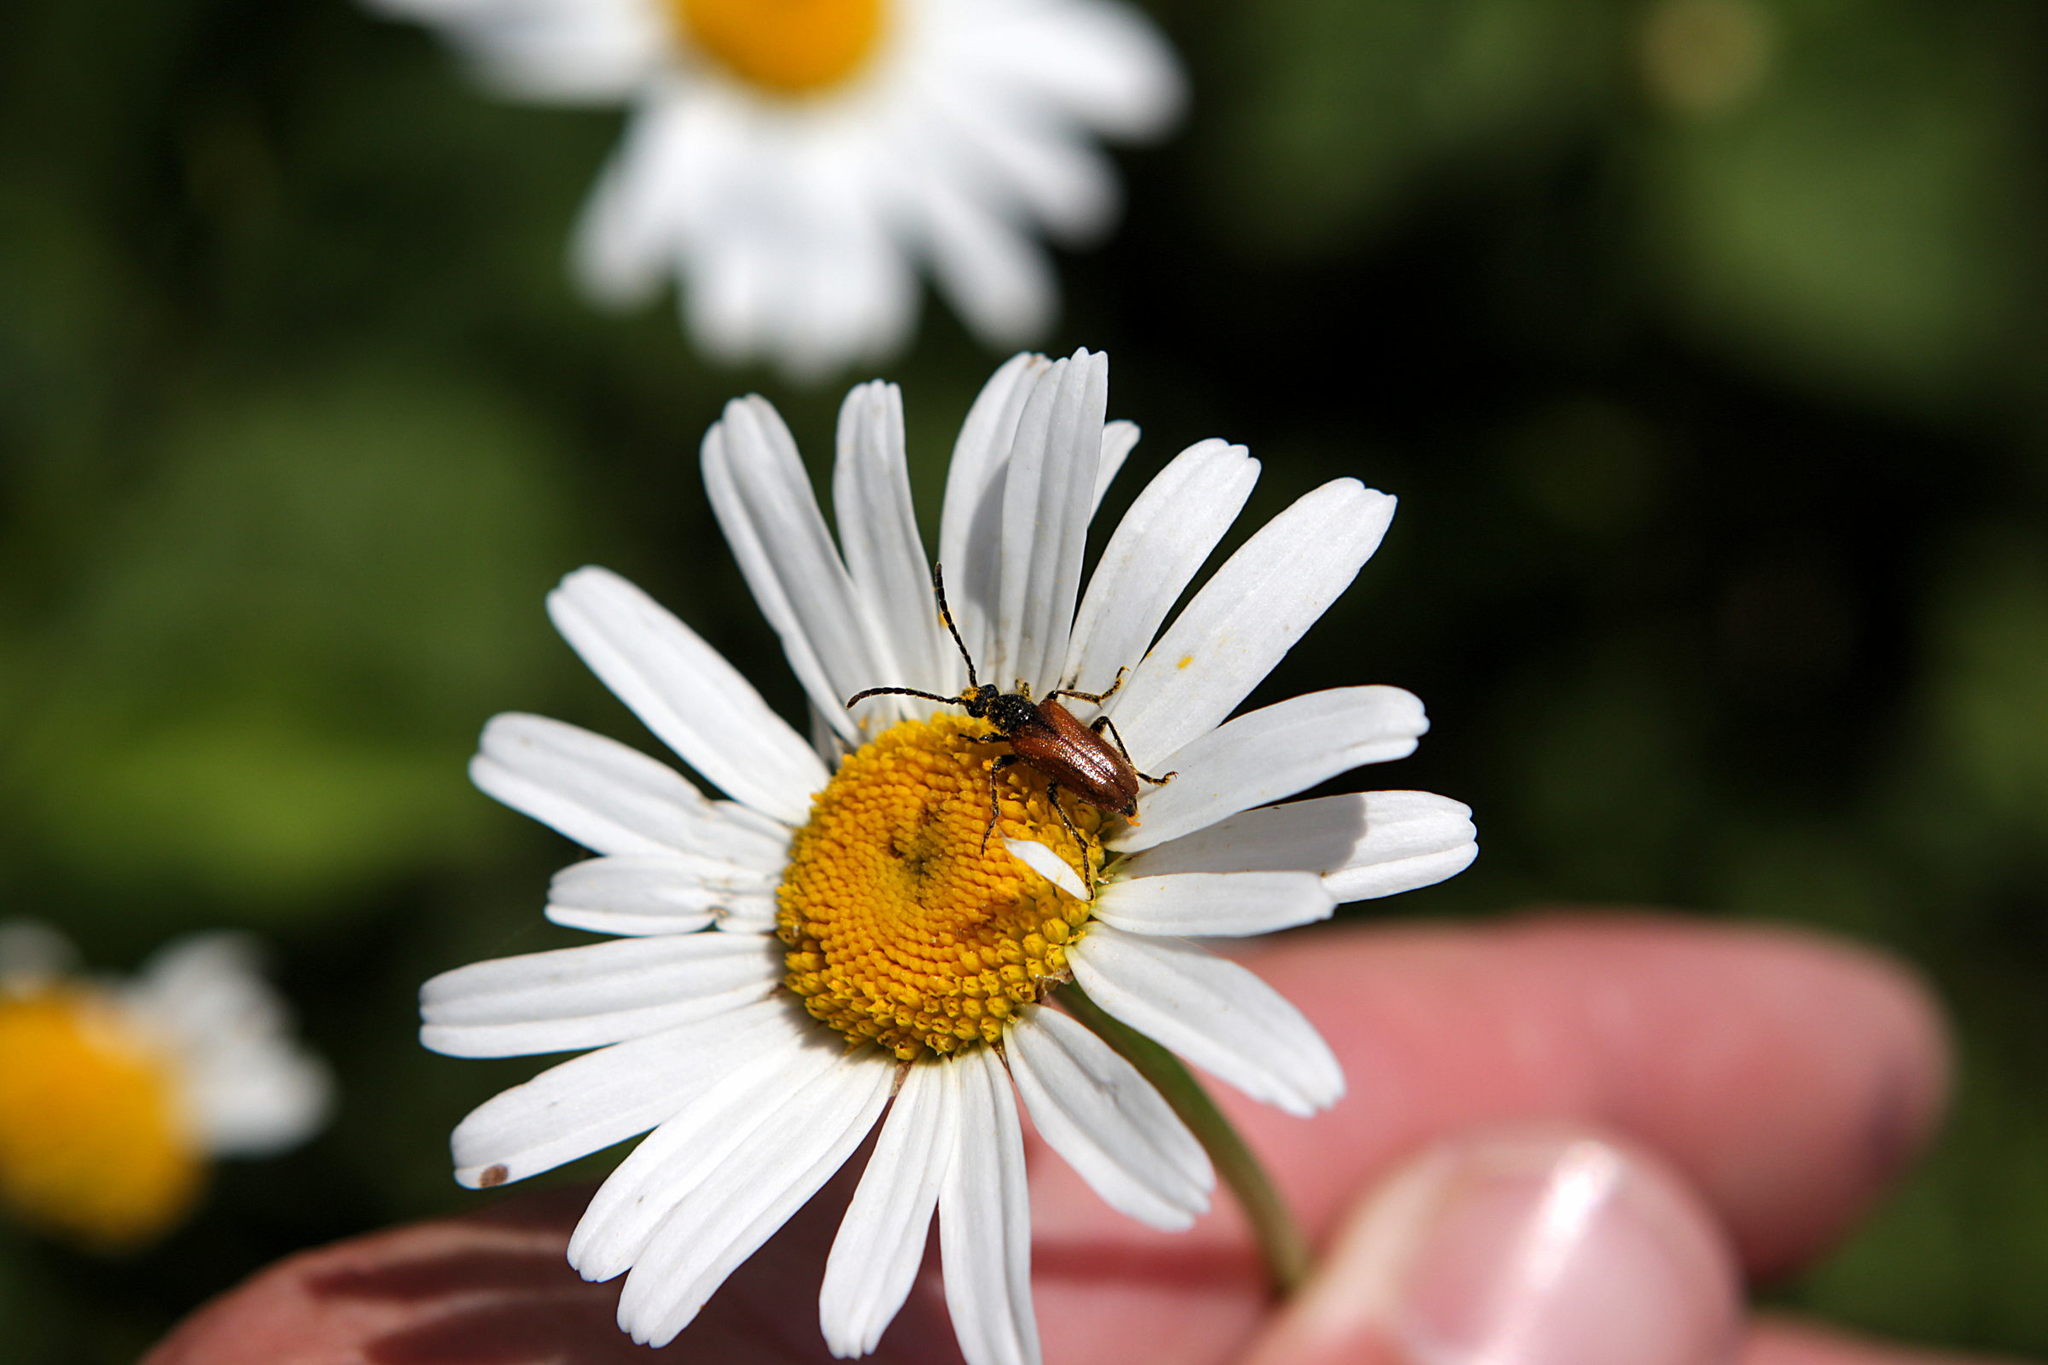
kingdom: Animalia
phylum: Arthropoda
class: Insecta
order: Coleoptera
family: Cerambycidae
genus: Pseudovadonia
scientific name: Pseudovadonia livida
